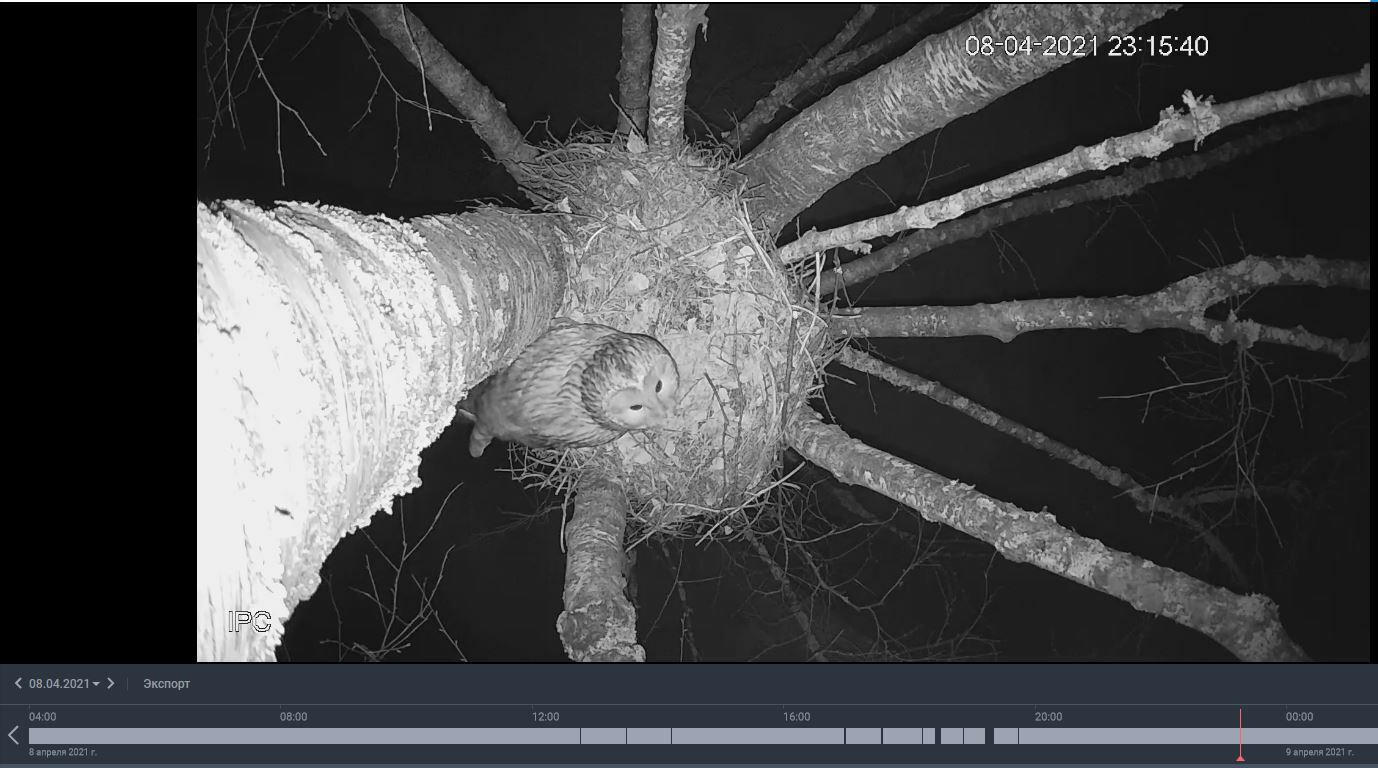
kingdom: Animalia
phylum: Chordata
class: Aves
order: Strigiformes
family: Strigidae
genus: Strix
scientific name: Strix uralensis
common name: Ural owl
